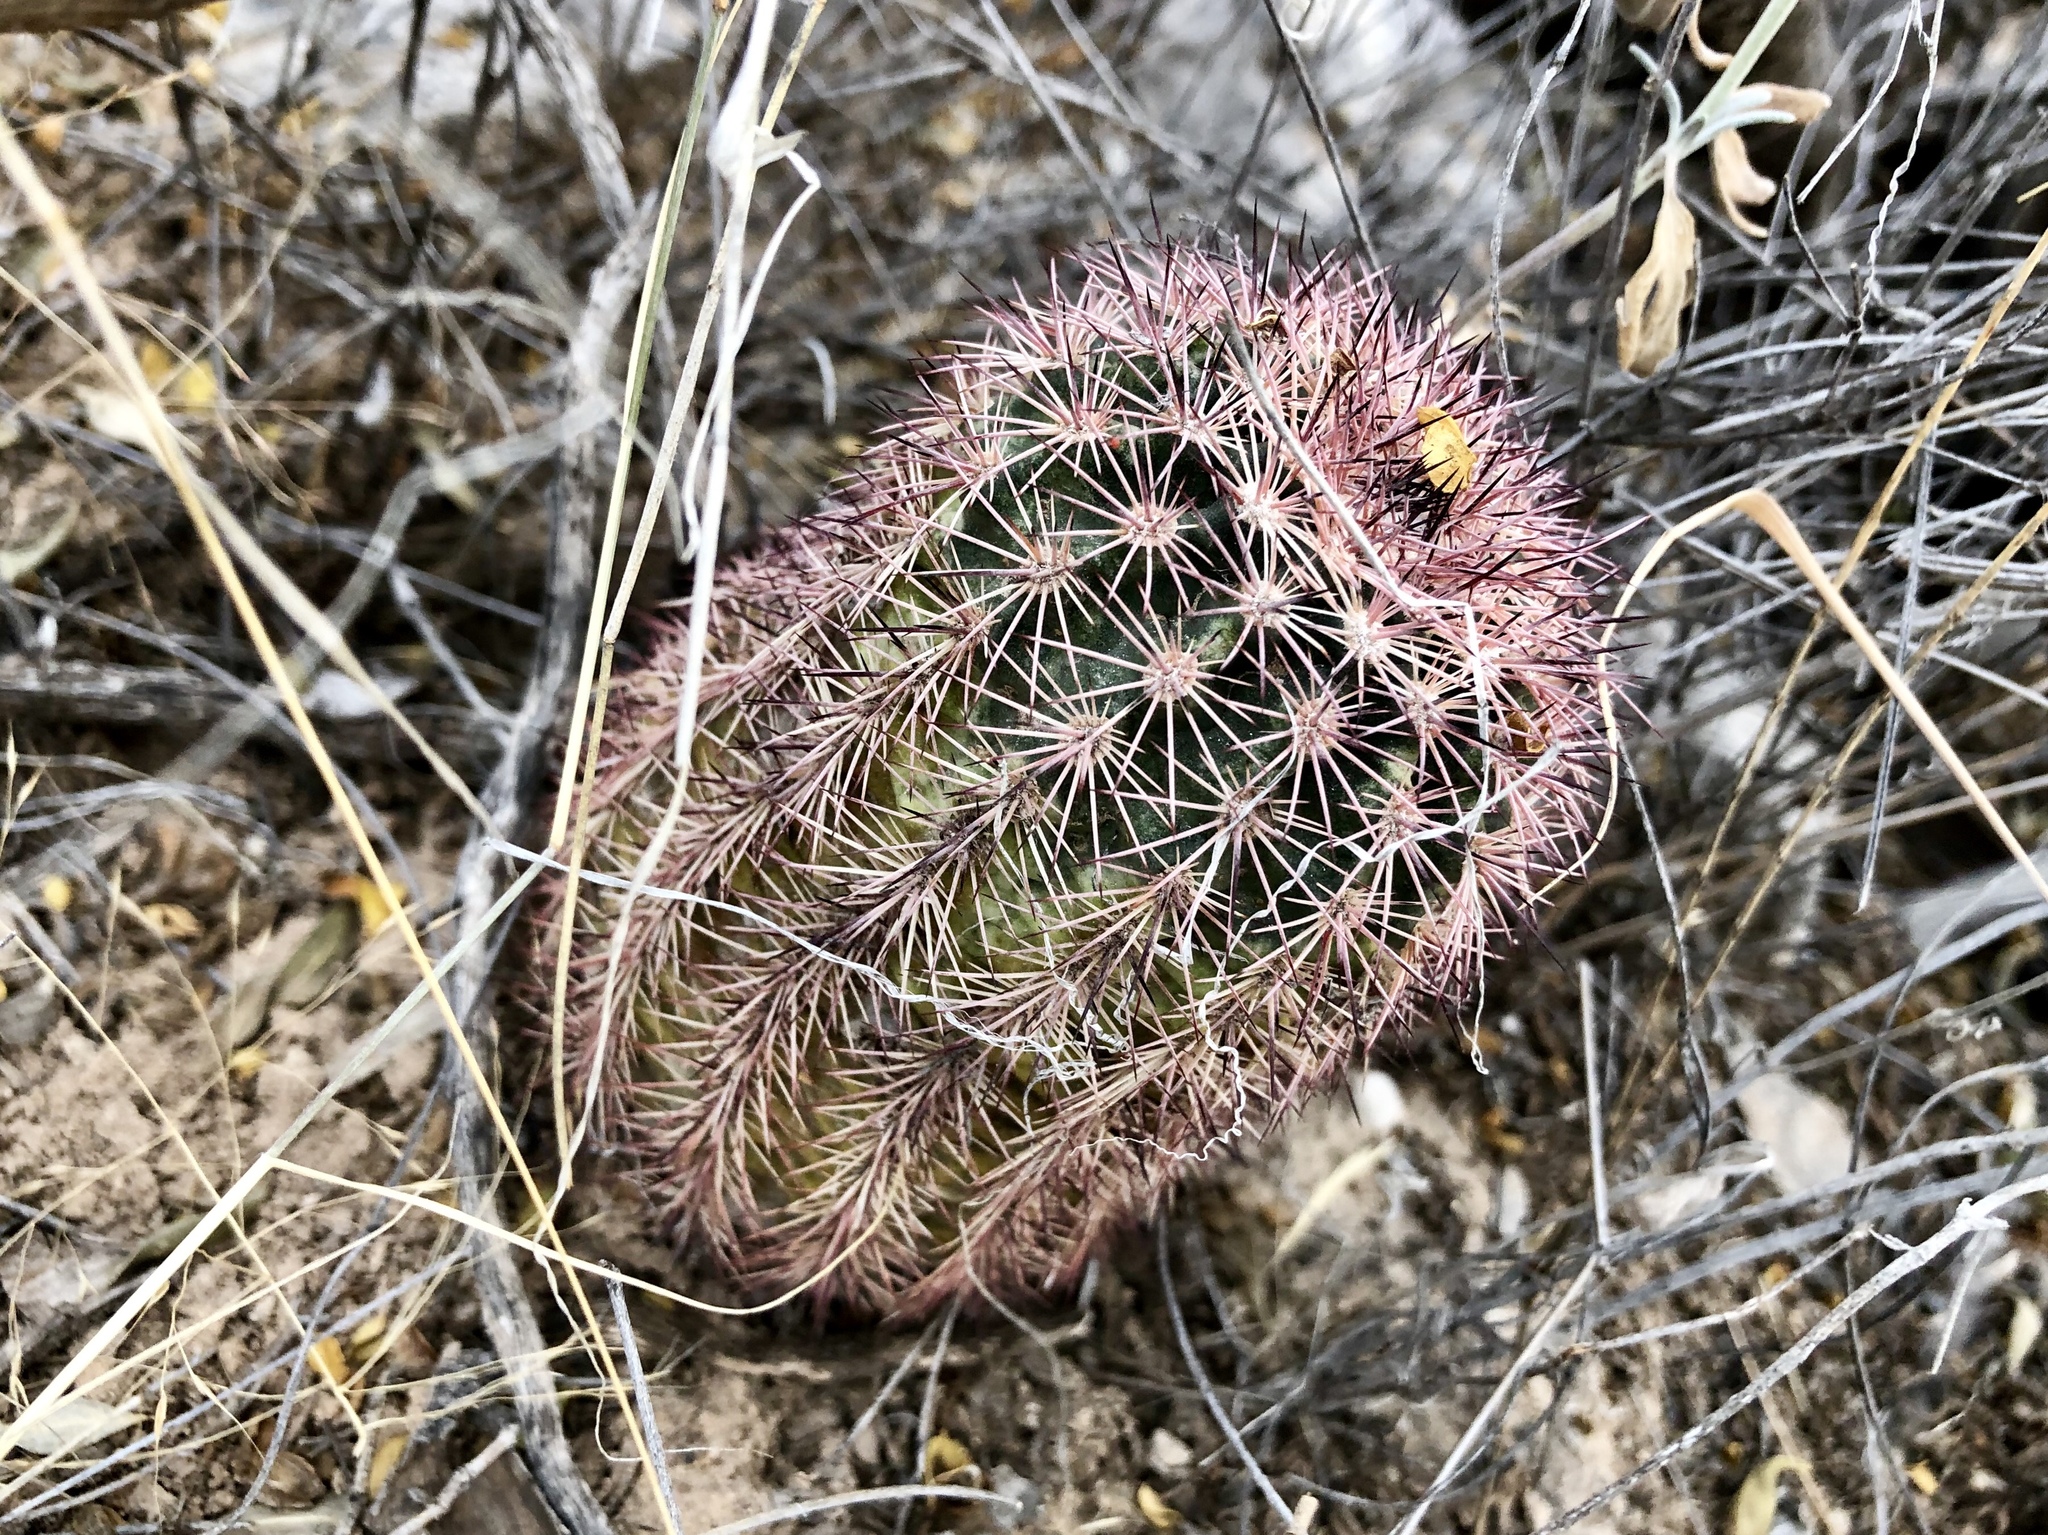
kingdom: Plantae
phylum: Tracheophyta
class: Magnoliopsida
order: Caryophyllales
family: Cactaceae
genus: Echinocereus
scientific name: Echinocereus roetteri
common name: Lloyd's hedgehog cactus
